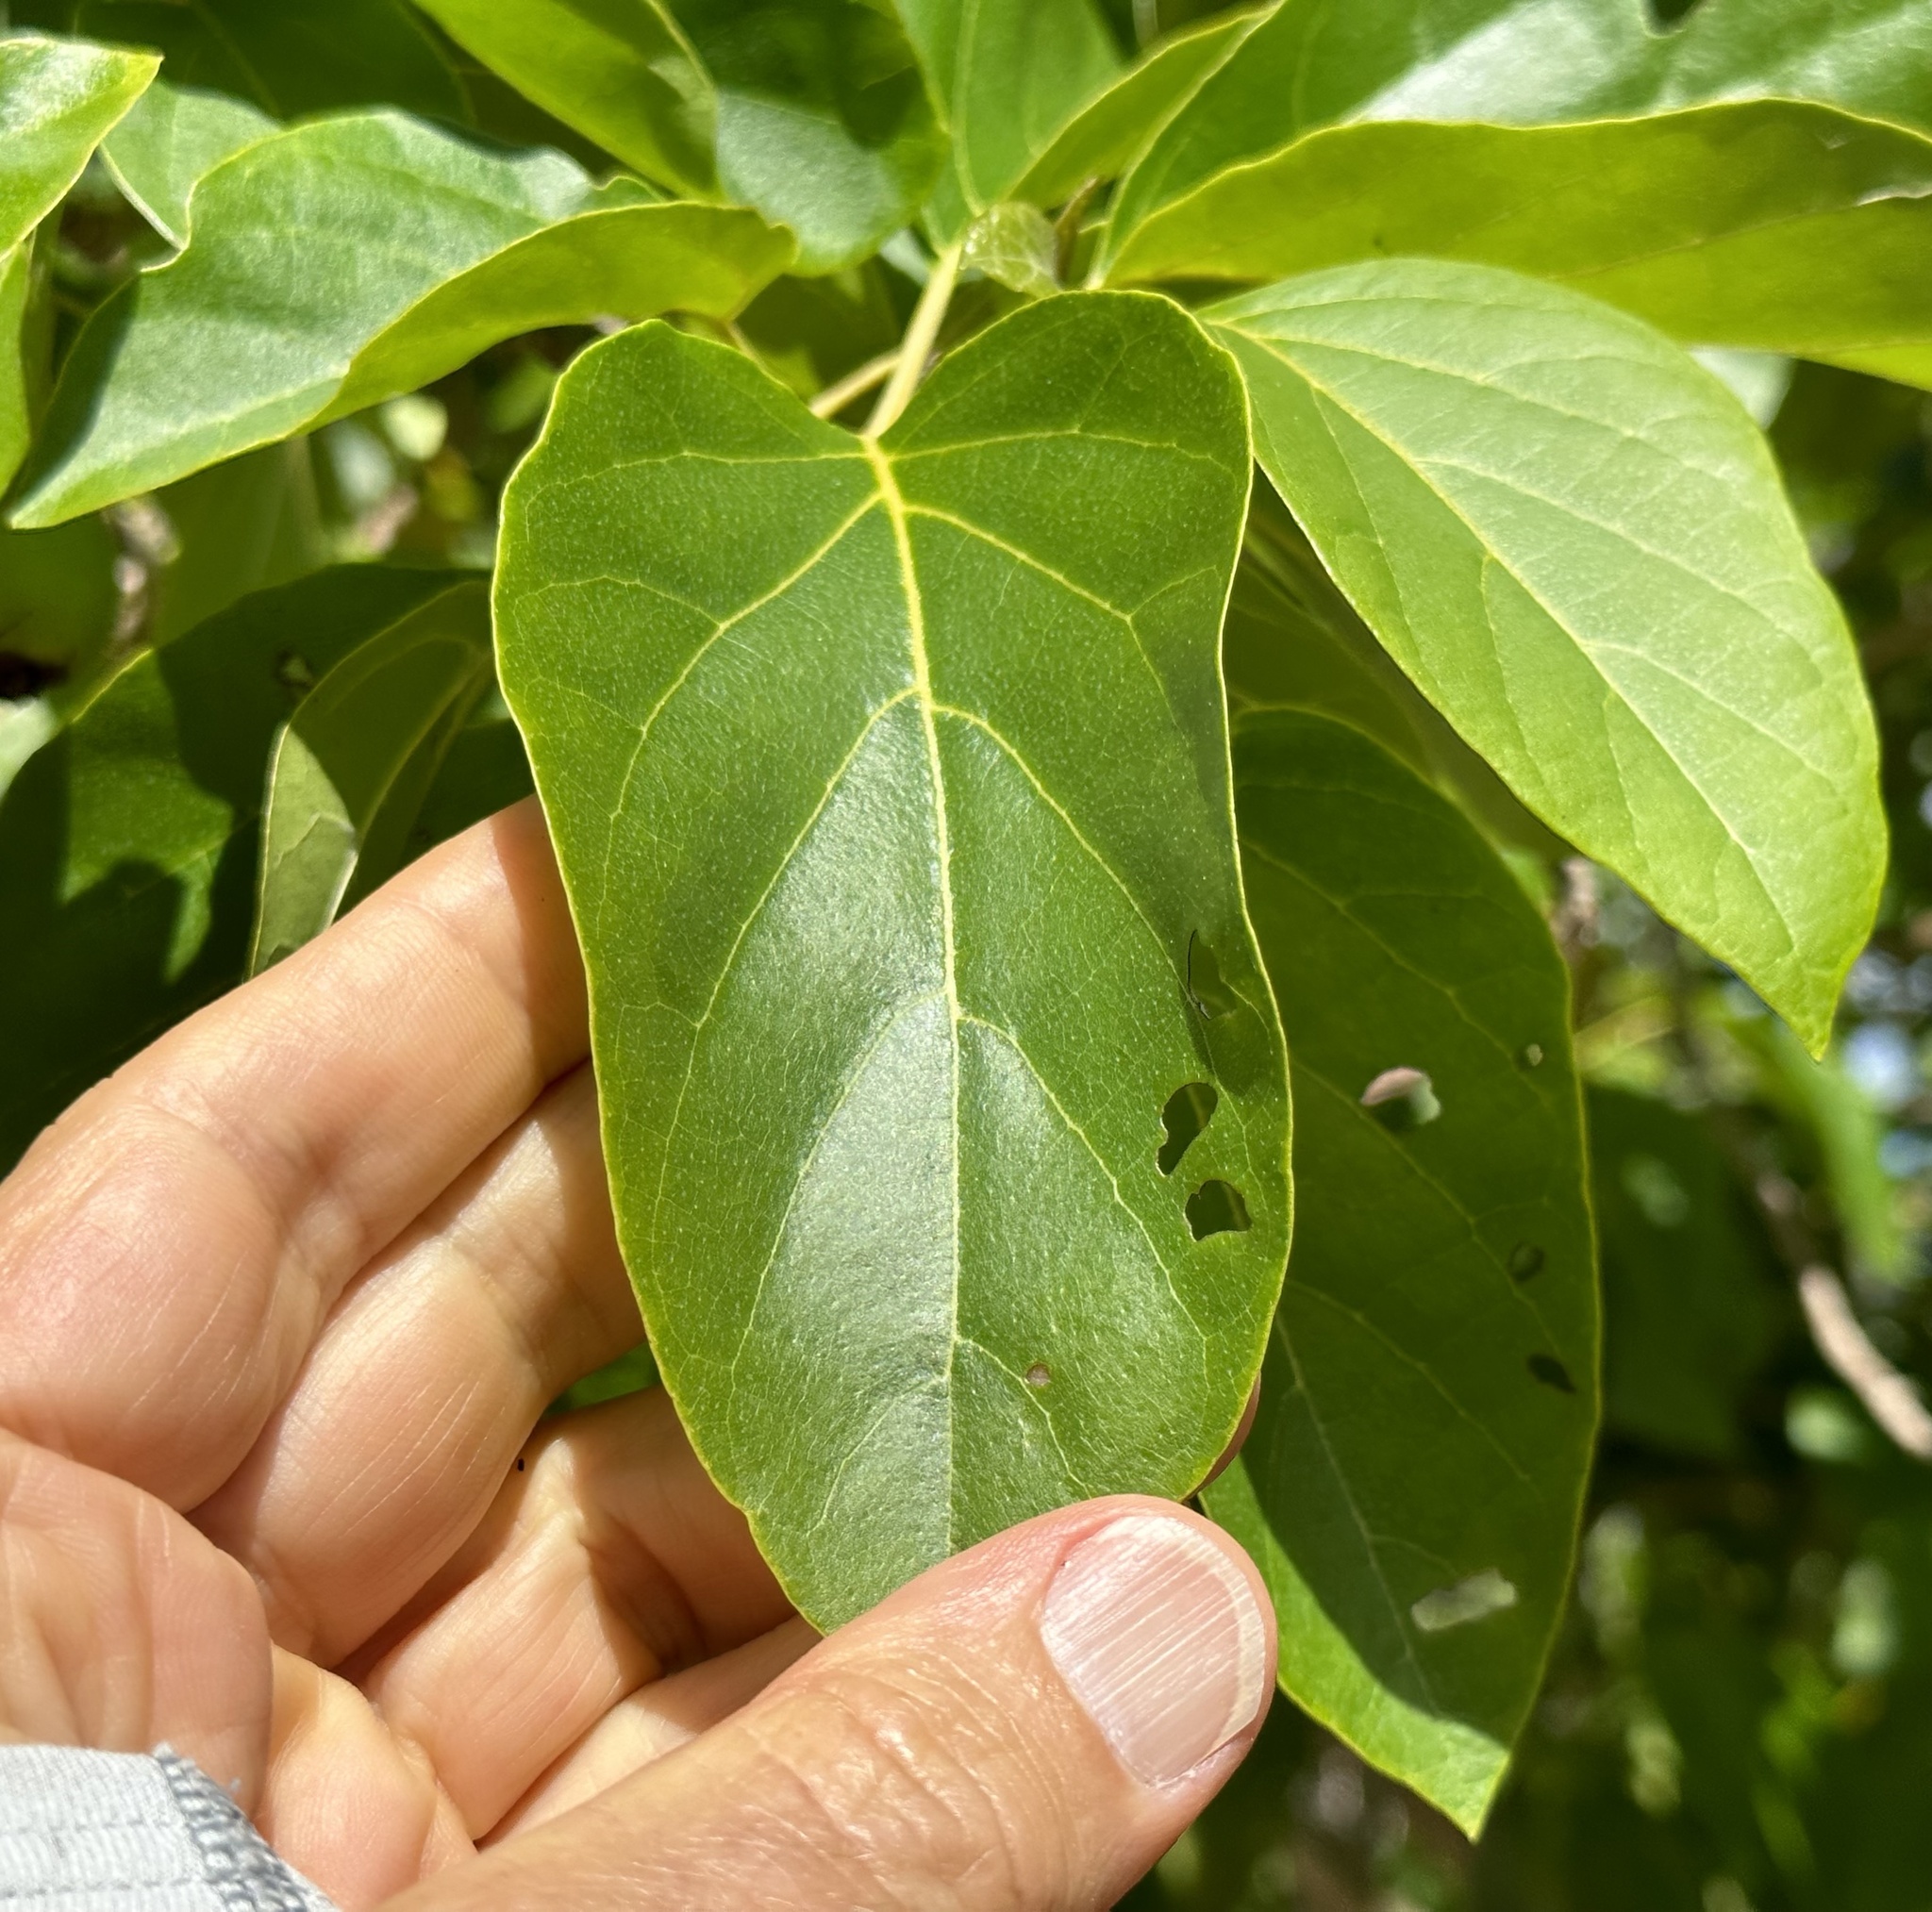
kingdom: Plantae
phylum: Tracheophyta
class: Magnoliopsida
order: Boraginales
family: Cordiaceae
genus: Cordia
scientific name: Cordia subcordata
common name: Mareer
